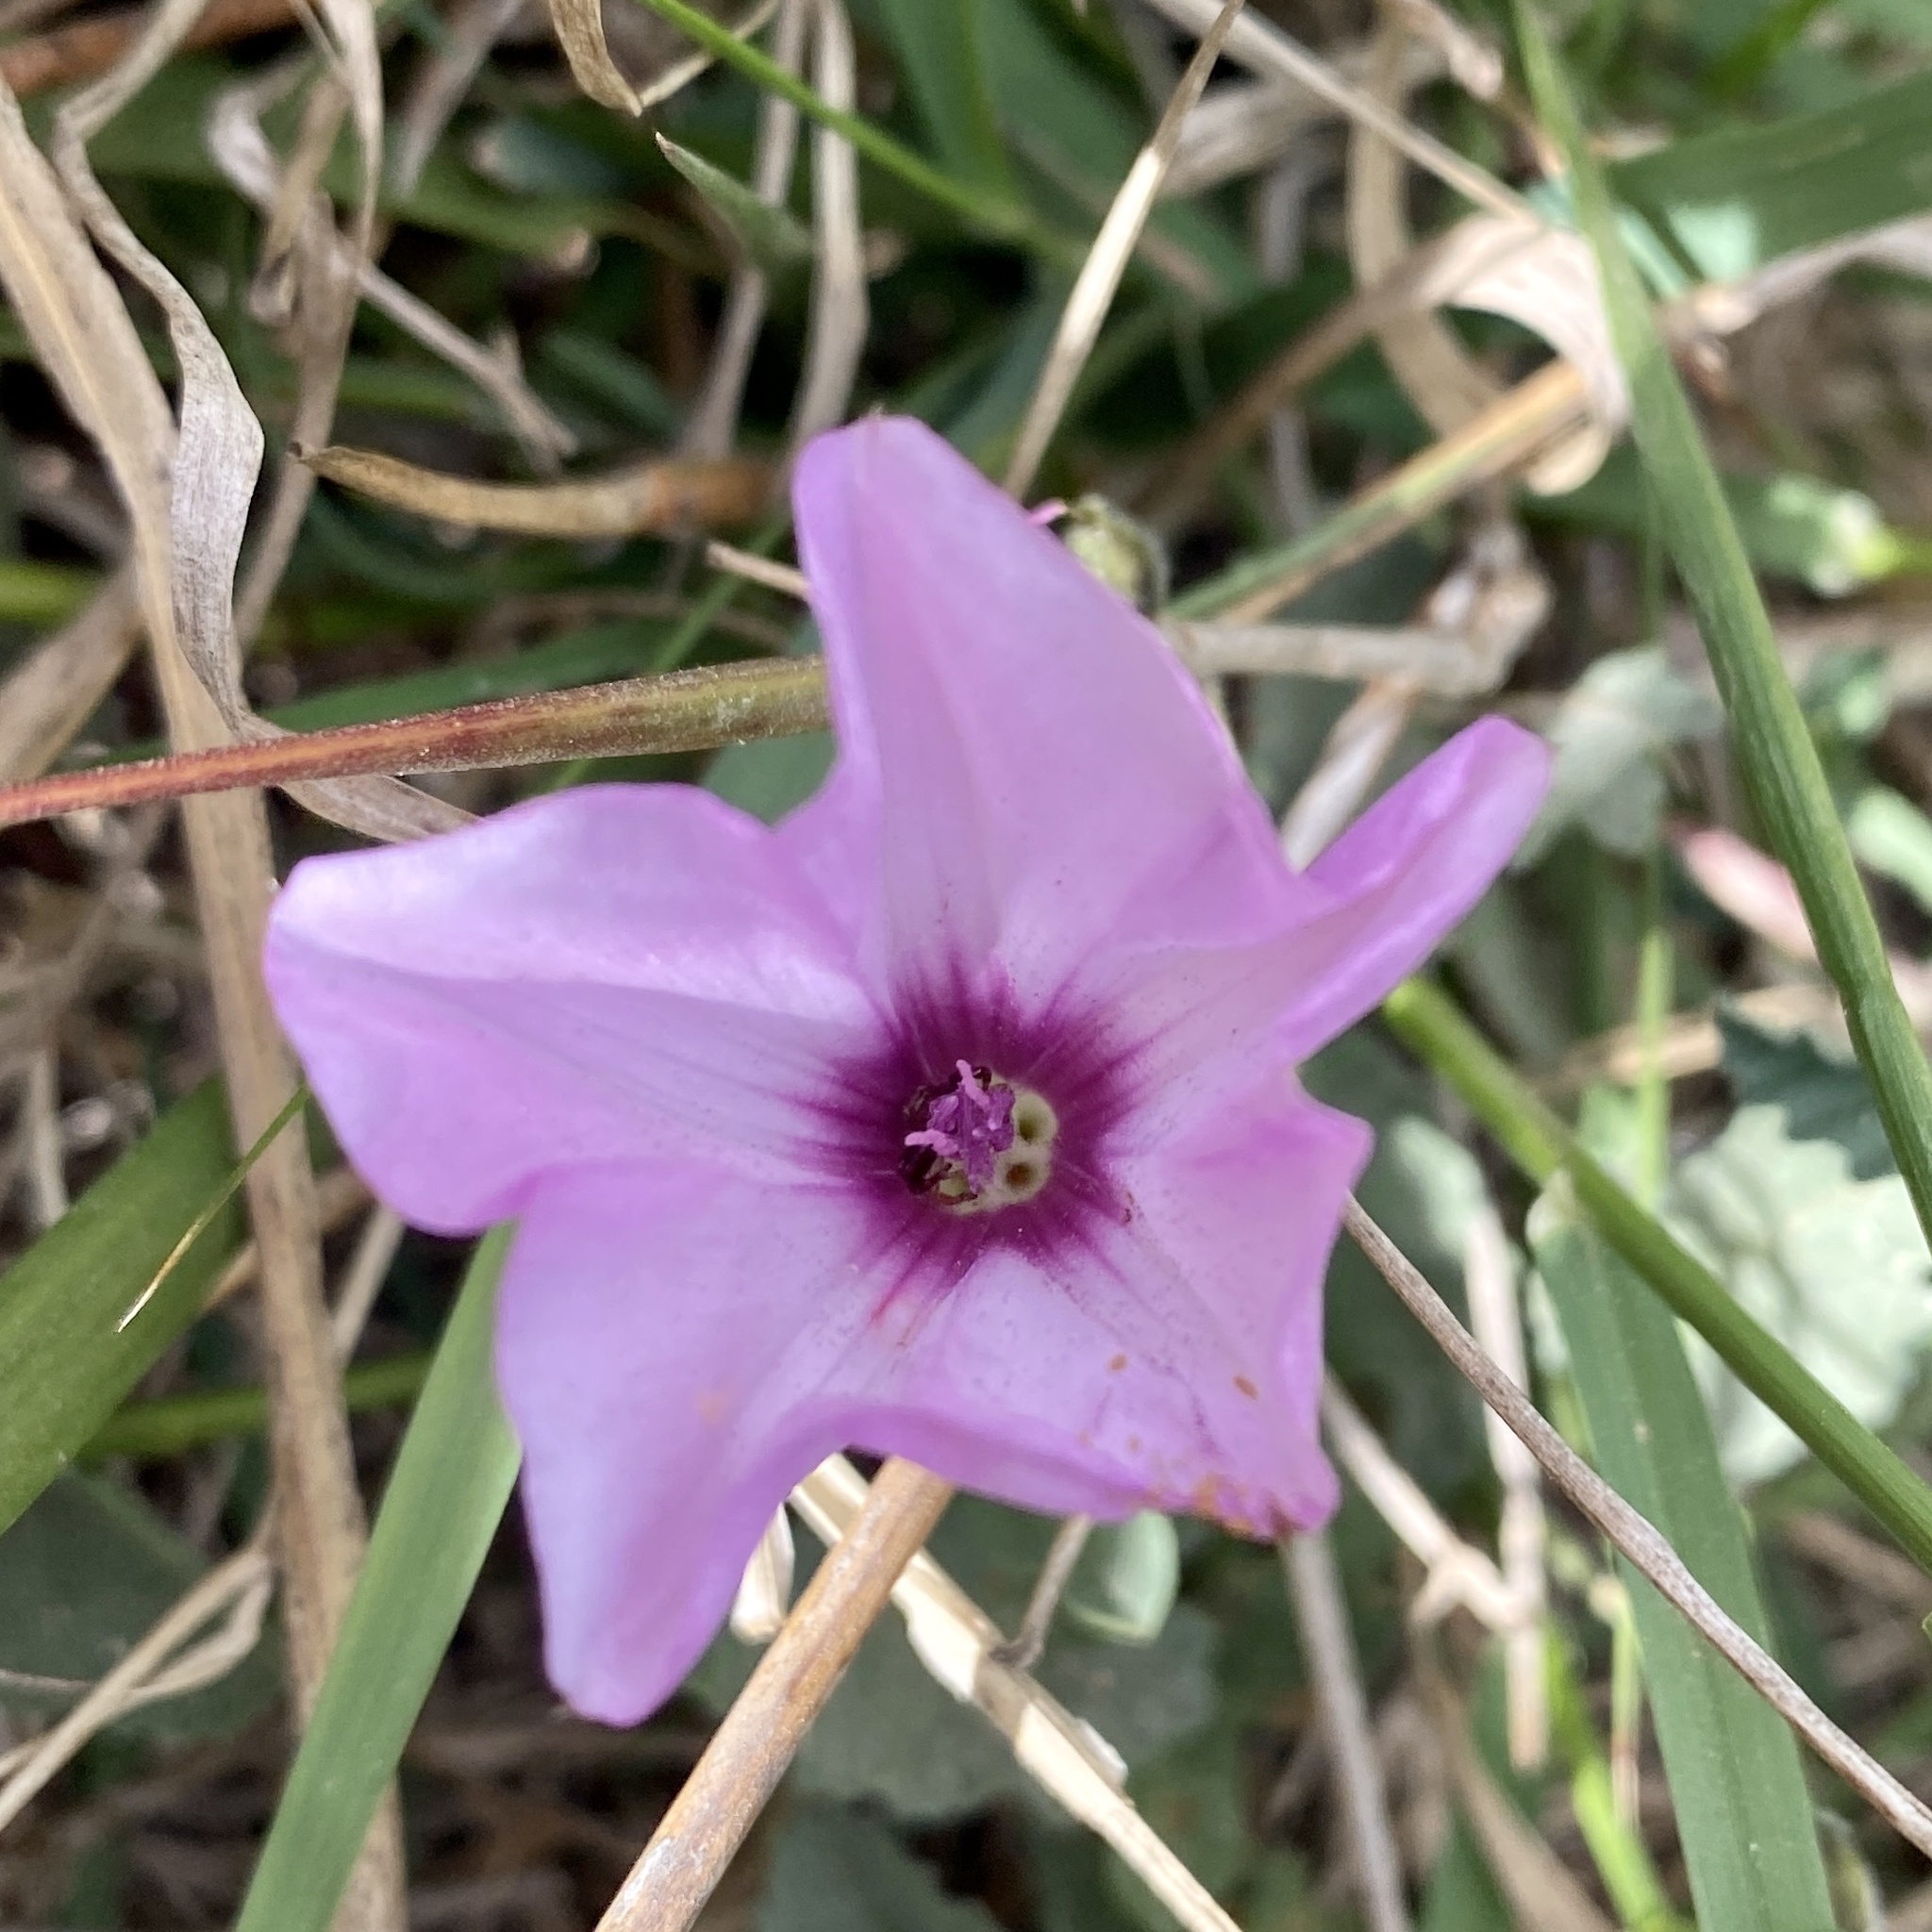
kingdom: Plantae
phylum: Tracheophyta
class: Magnoliopsida
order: Solanales
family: Convolvulaceae
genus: Convolvulus
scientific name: Convolvulus althaeoides
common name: Mallow bindweed
